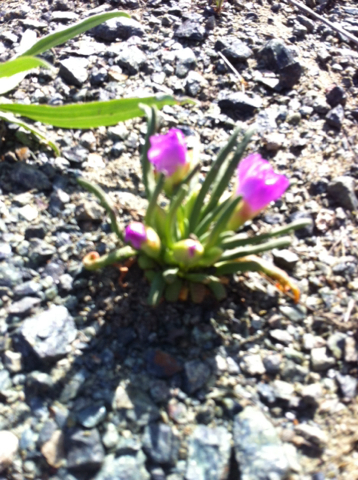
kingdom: Plantae
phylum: Tracheophyta
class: Magnoliopsida
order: Caryophyllales
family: Montiaceae
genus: Lewisia
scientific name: Lewisia rediviva
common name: Bitter-root
